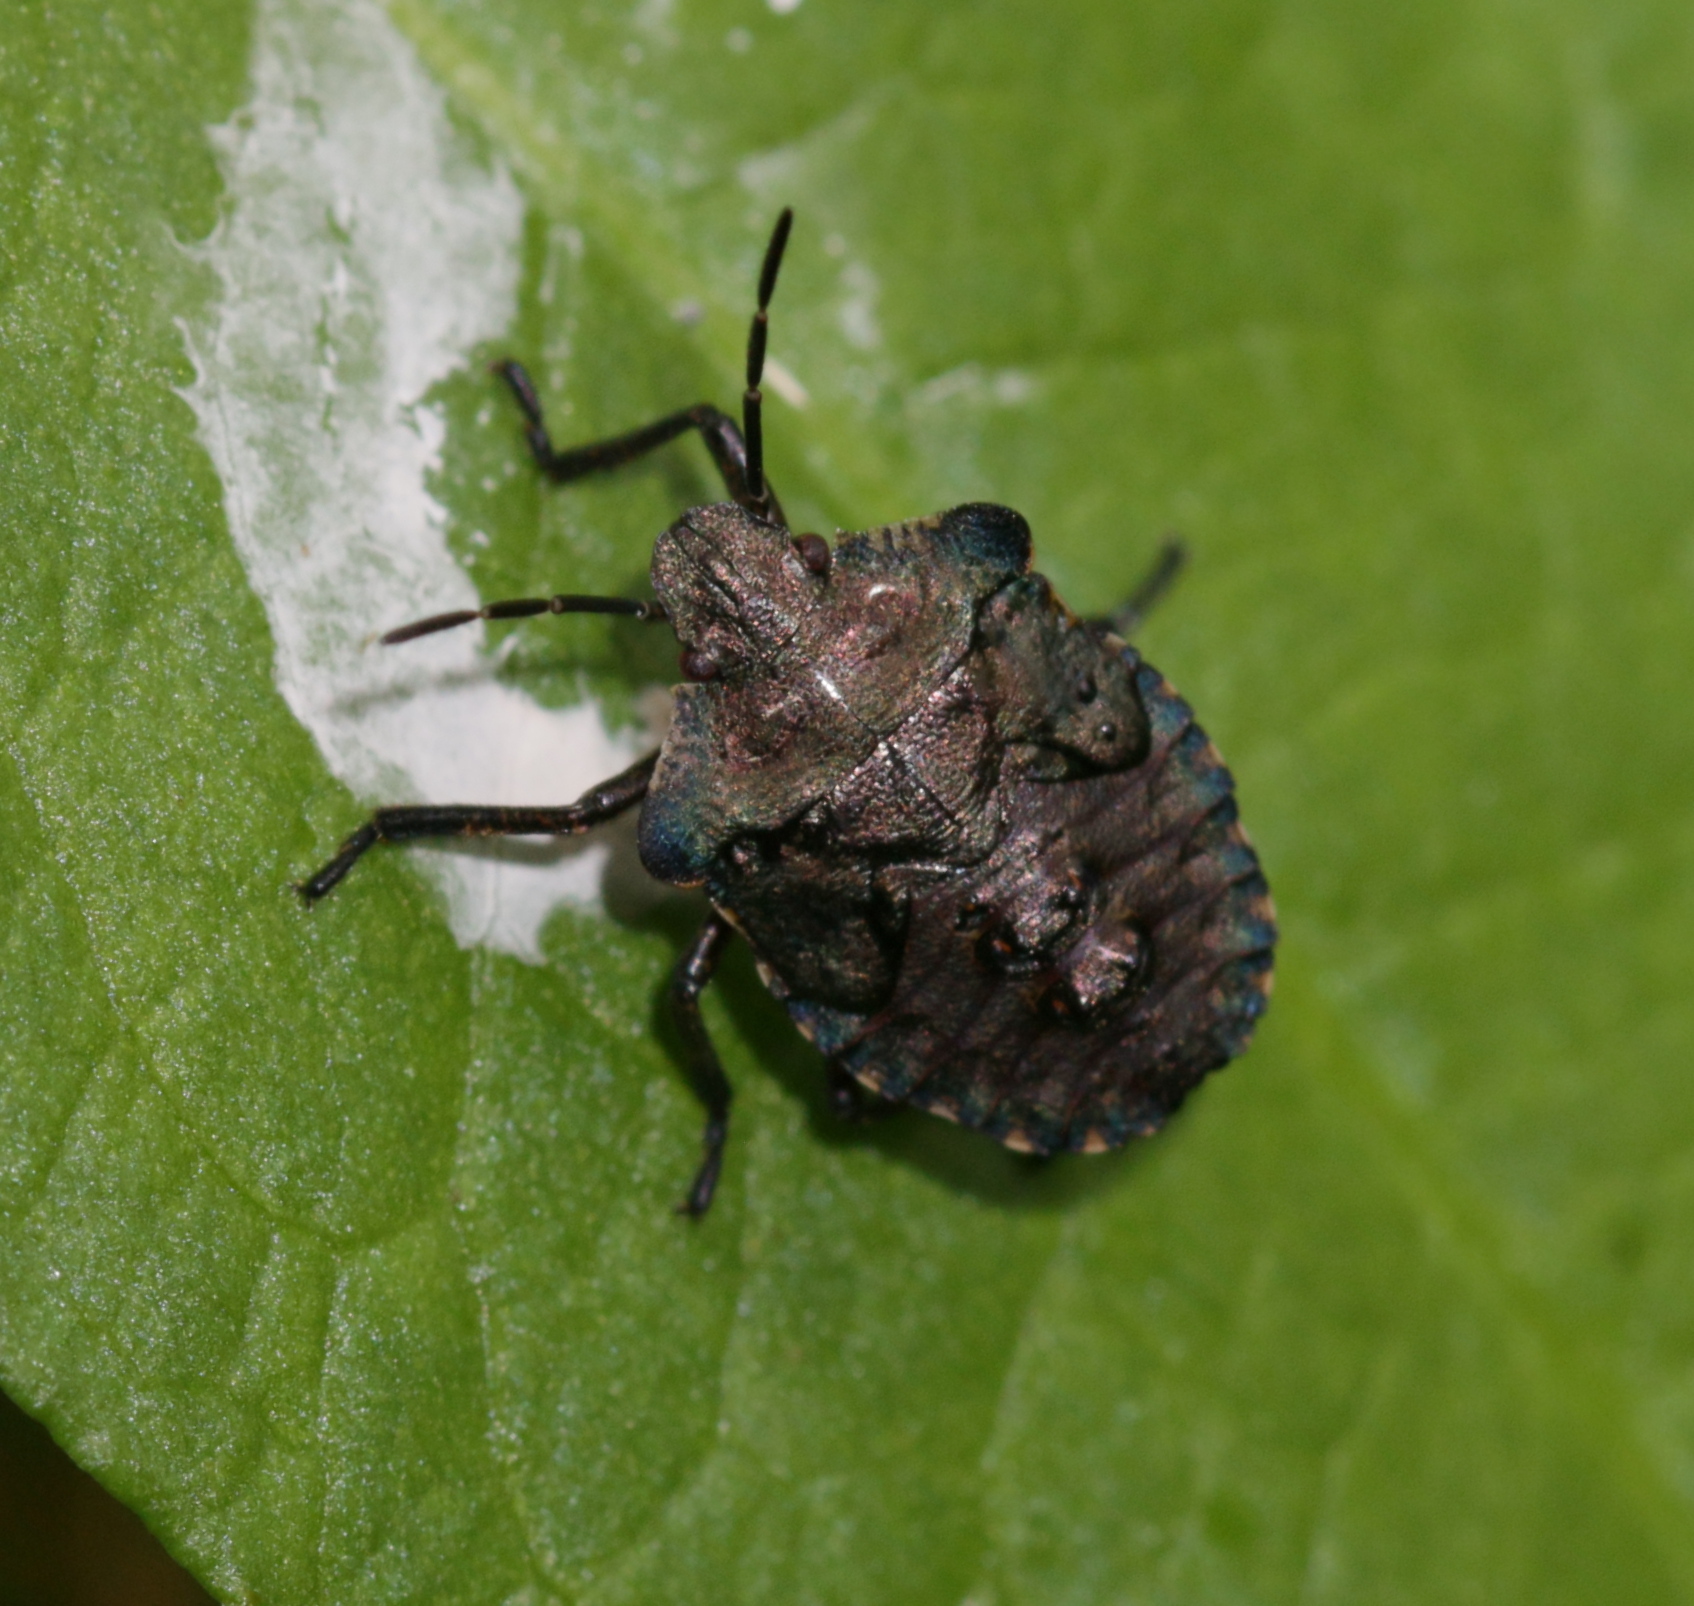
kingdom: Animalia
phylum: Arthropoda
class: Insecta
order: Hemiptera
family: Pentatomidae
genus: Pentatoma
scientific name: Pentatoma rufipes
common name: Forest bug
